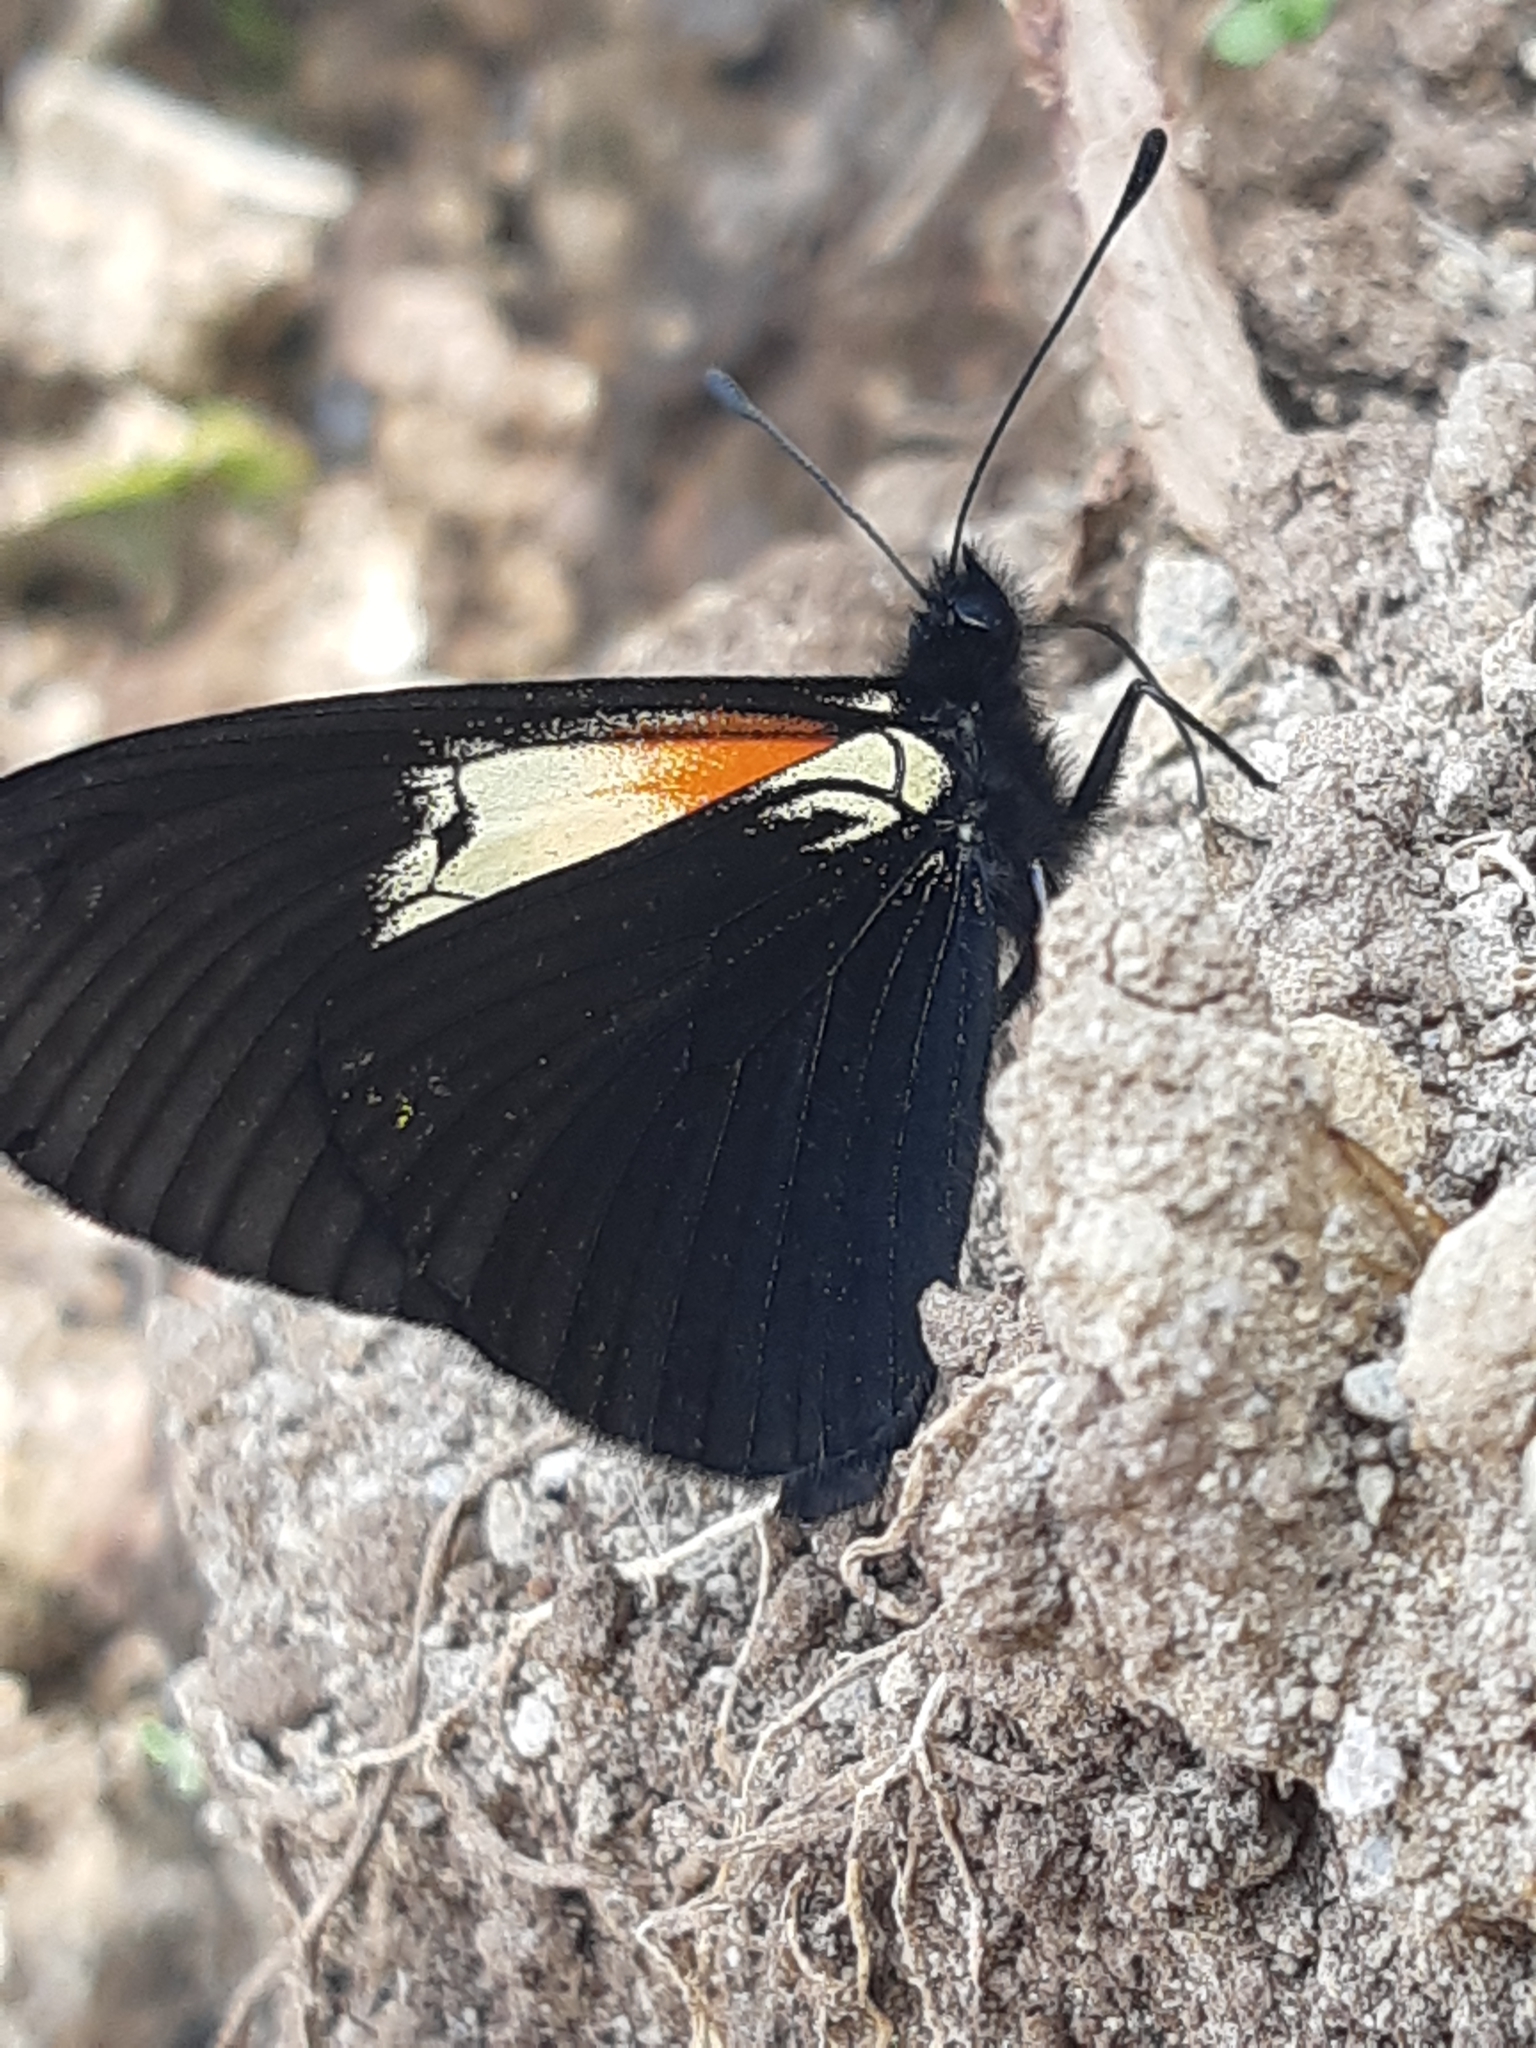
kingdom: Animalia
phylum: Arthropoda
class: Insecta
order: Lepidoptera
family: Nymphalidae
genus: Acraea
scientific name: Acraea Altinote ozomene
